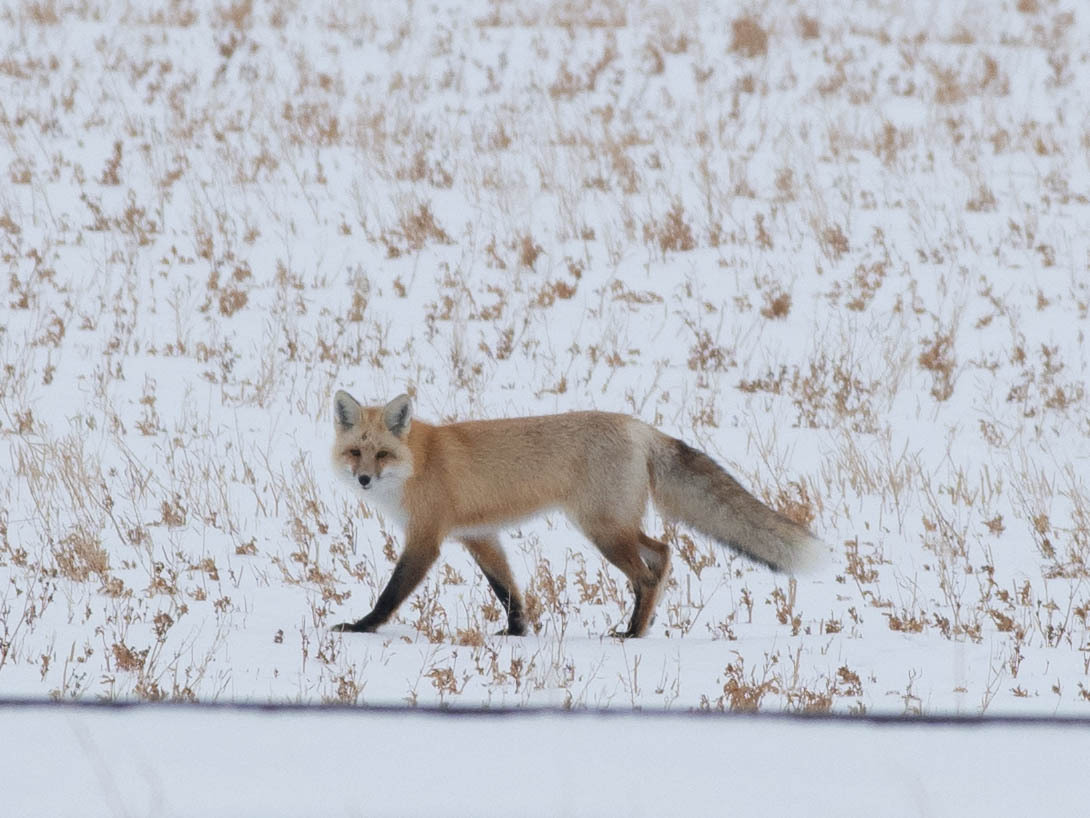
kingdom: Animalia
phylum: Chordata
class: Mammalia
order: Carnivora
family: Canidae
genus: Vulpes
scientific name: Vulpes vulpes
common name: Red fox
